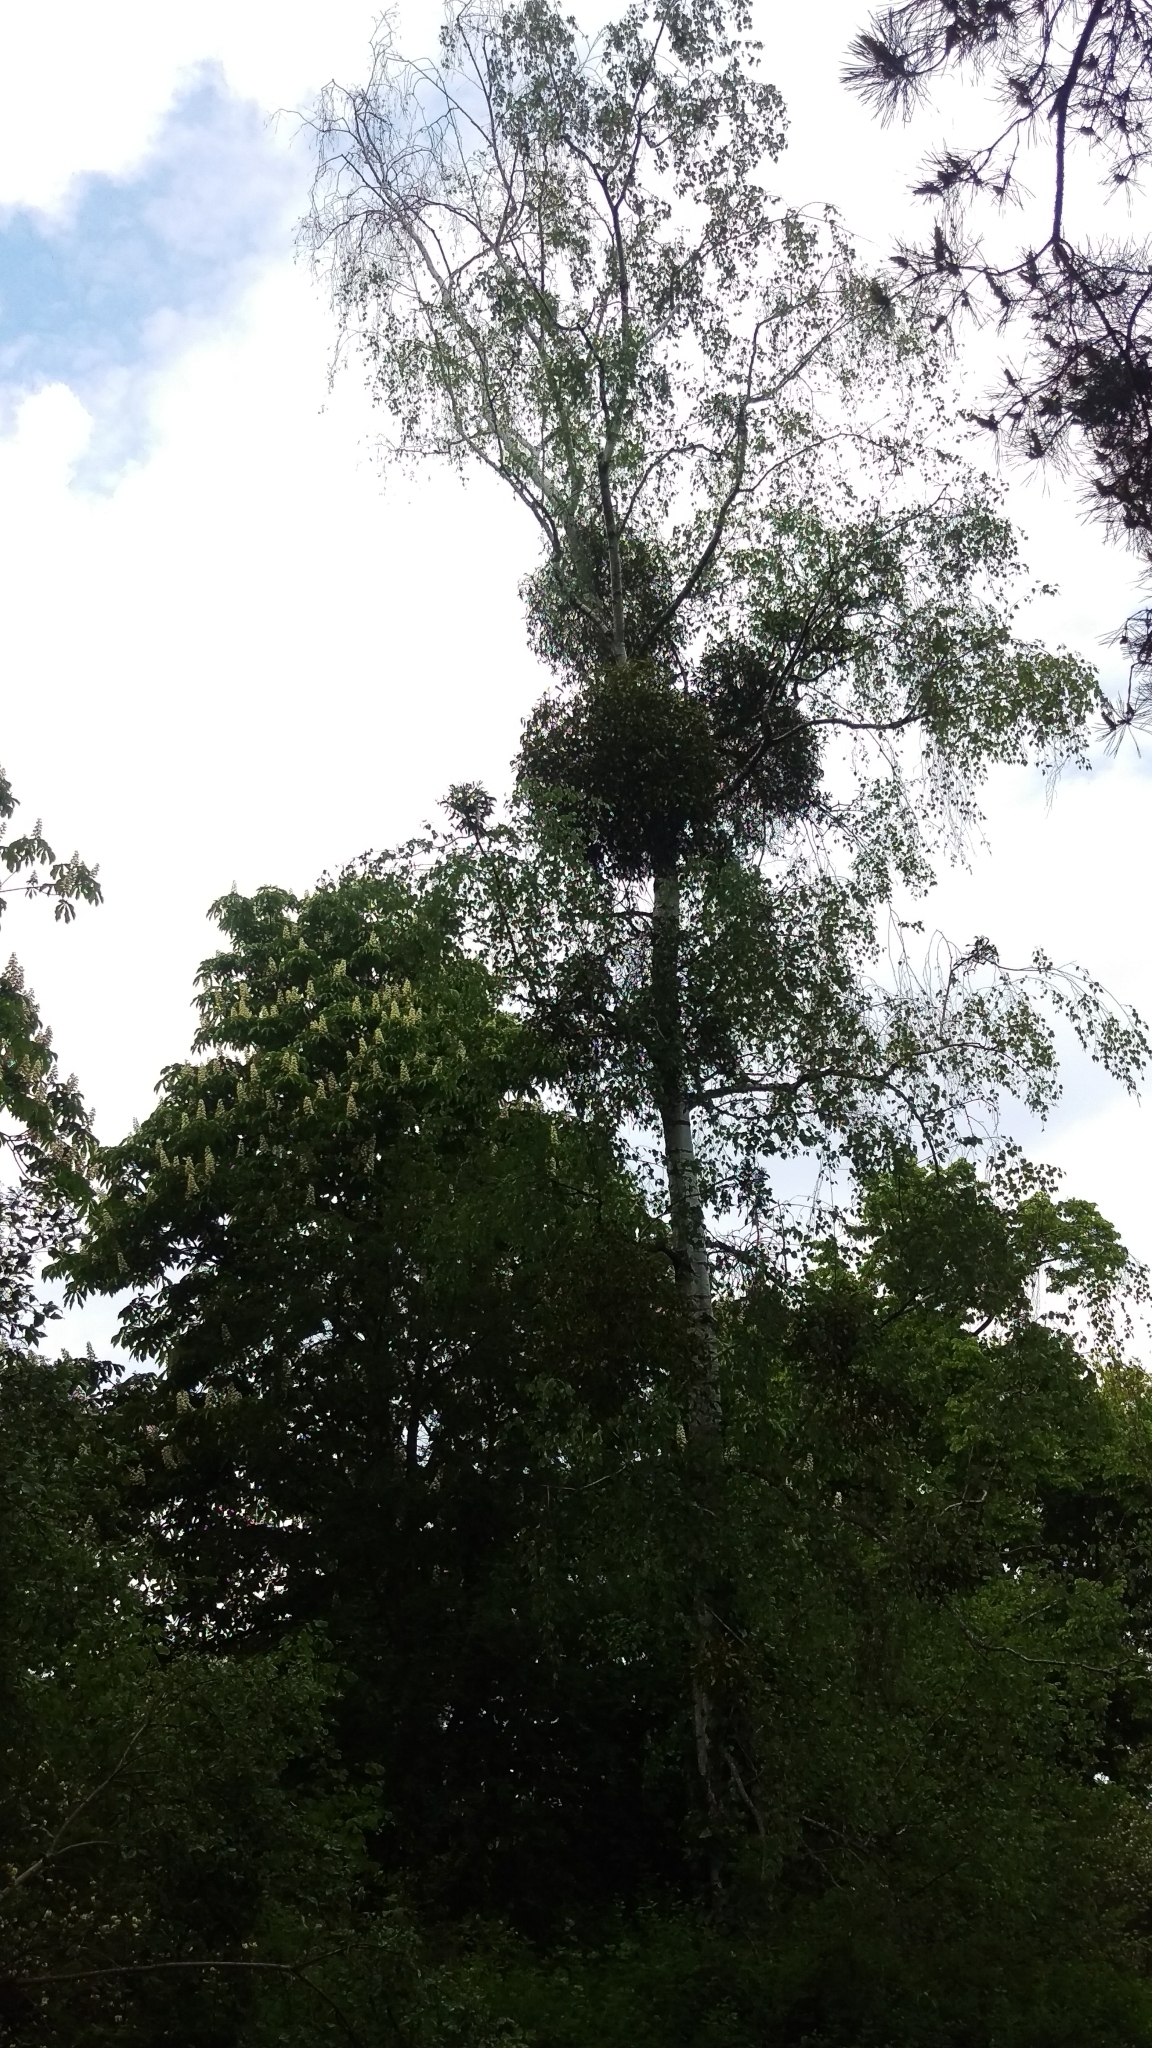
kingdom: Plantae
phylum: Tracheophyta
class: Magnoliopsida
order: Santalales
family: Viscaceae
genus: Viscum
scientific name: Viscum album
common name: Mistletoe
